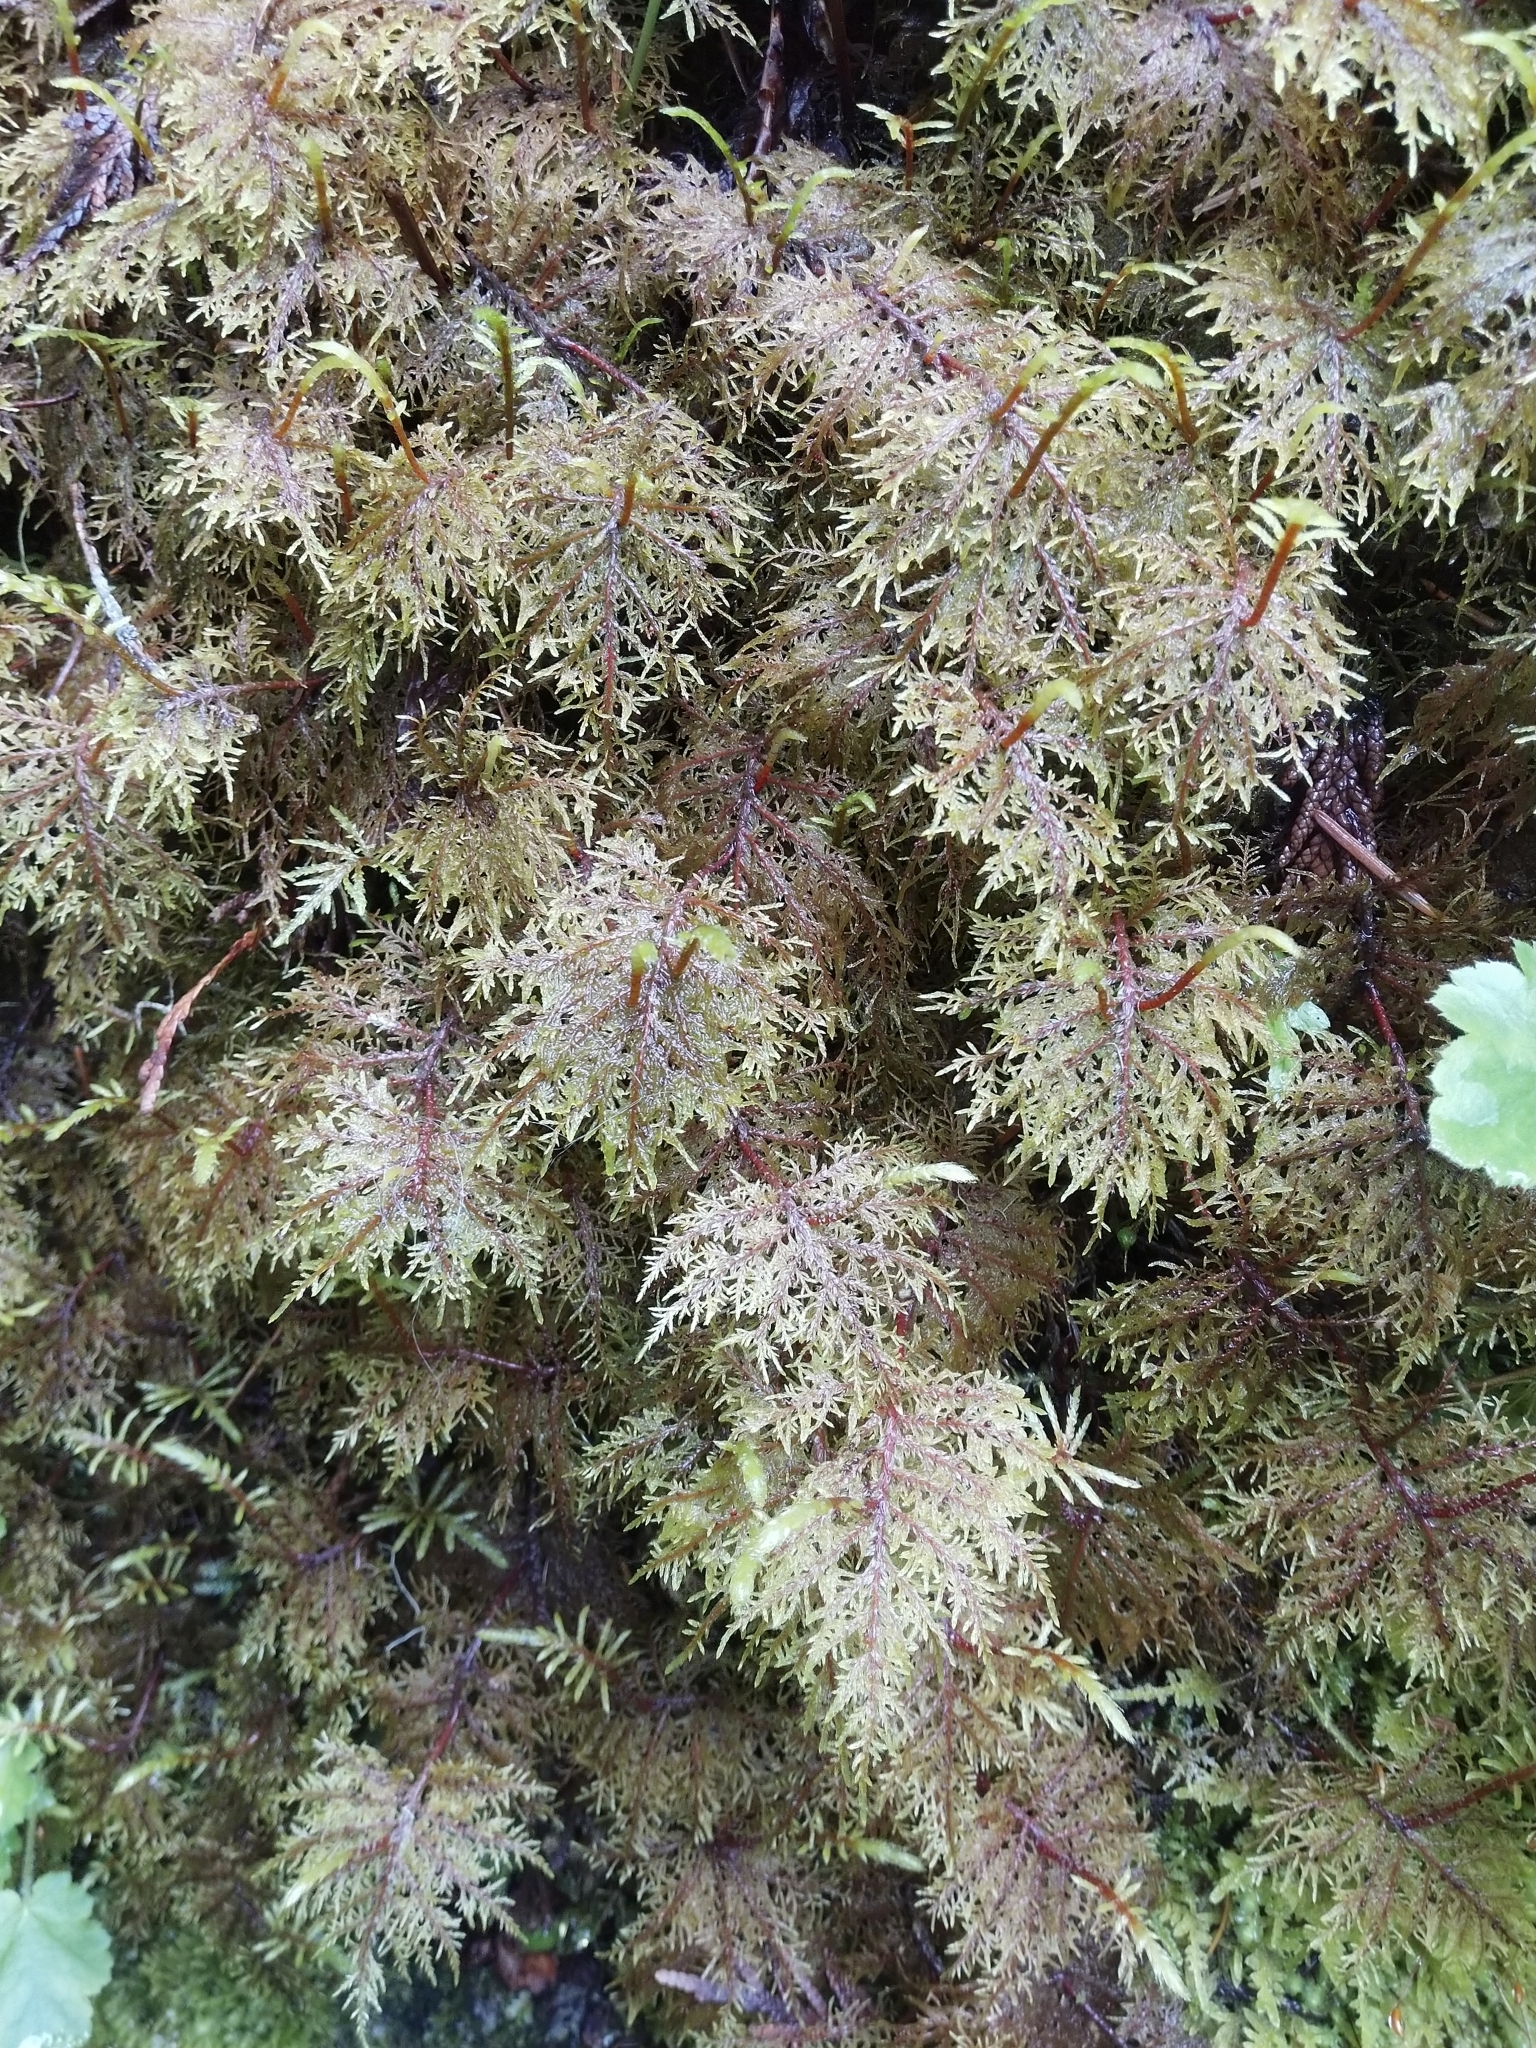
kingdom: Plantae
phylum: Bryophyta
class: Bryopsida
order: Hypnales
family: Hylocomiaceae
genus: Hylocomium
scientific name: Hylocomium splendens
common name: Stairstep moss
